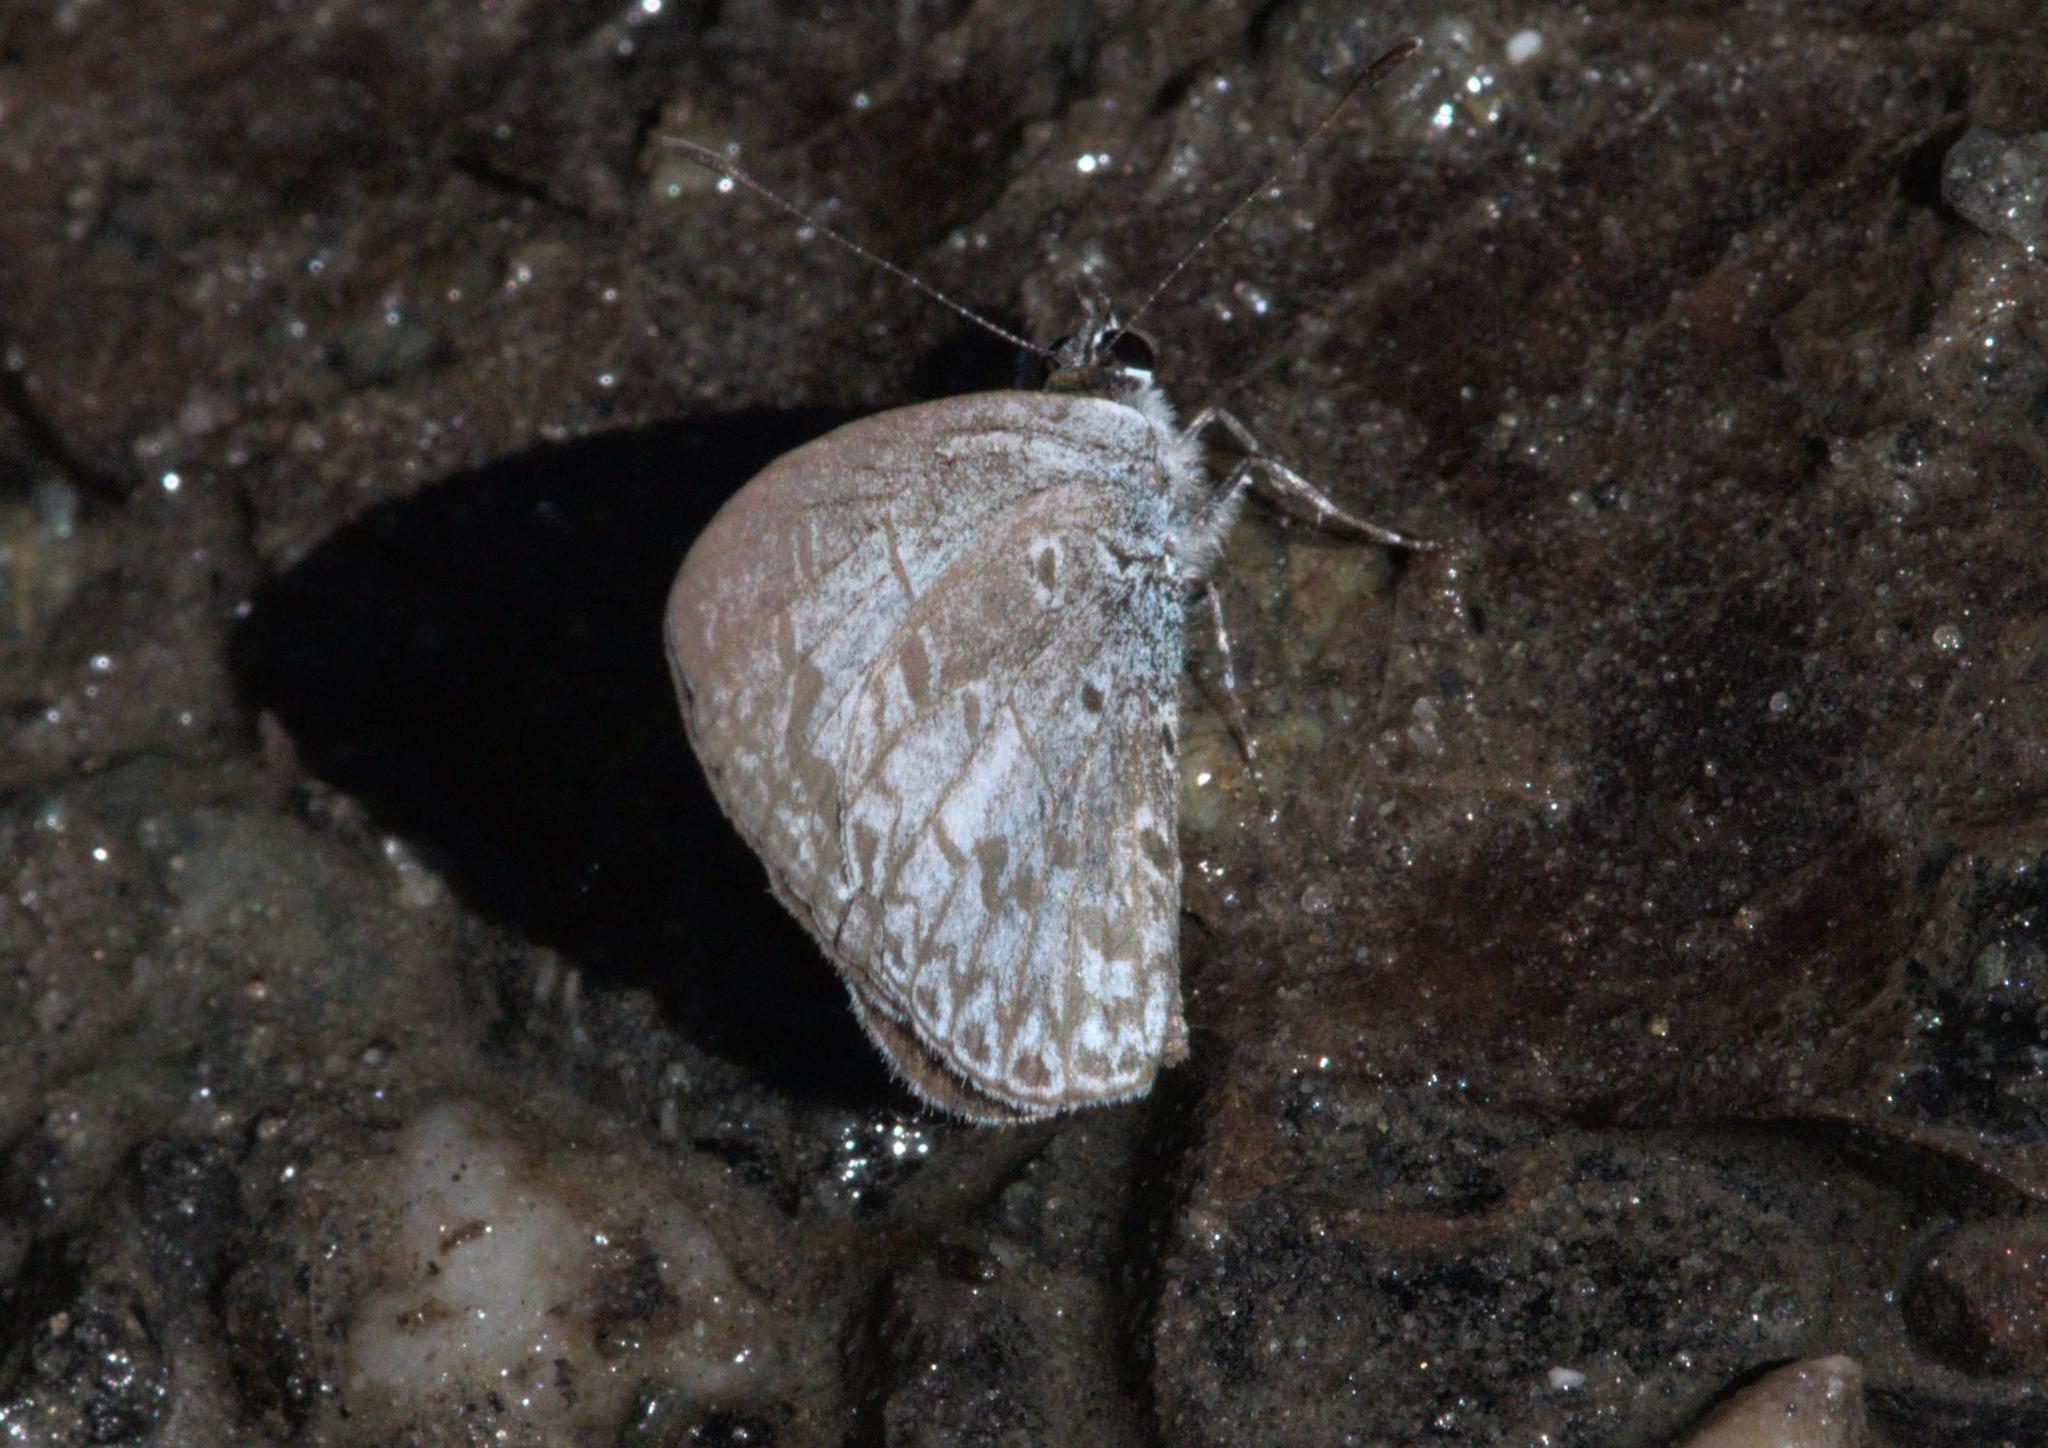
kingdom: Animalia
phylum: Arthropoda
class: Insecta
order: Lepidoptera
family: Lycaenidae
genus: Lycaenopsis
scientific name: Lycaenopsis marginata
